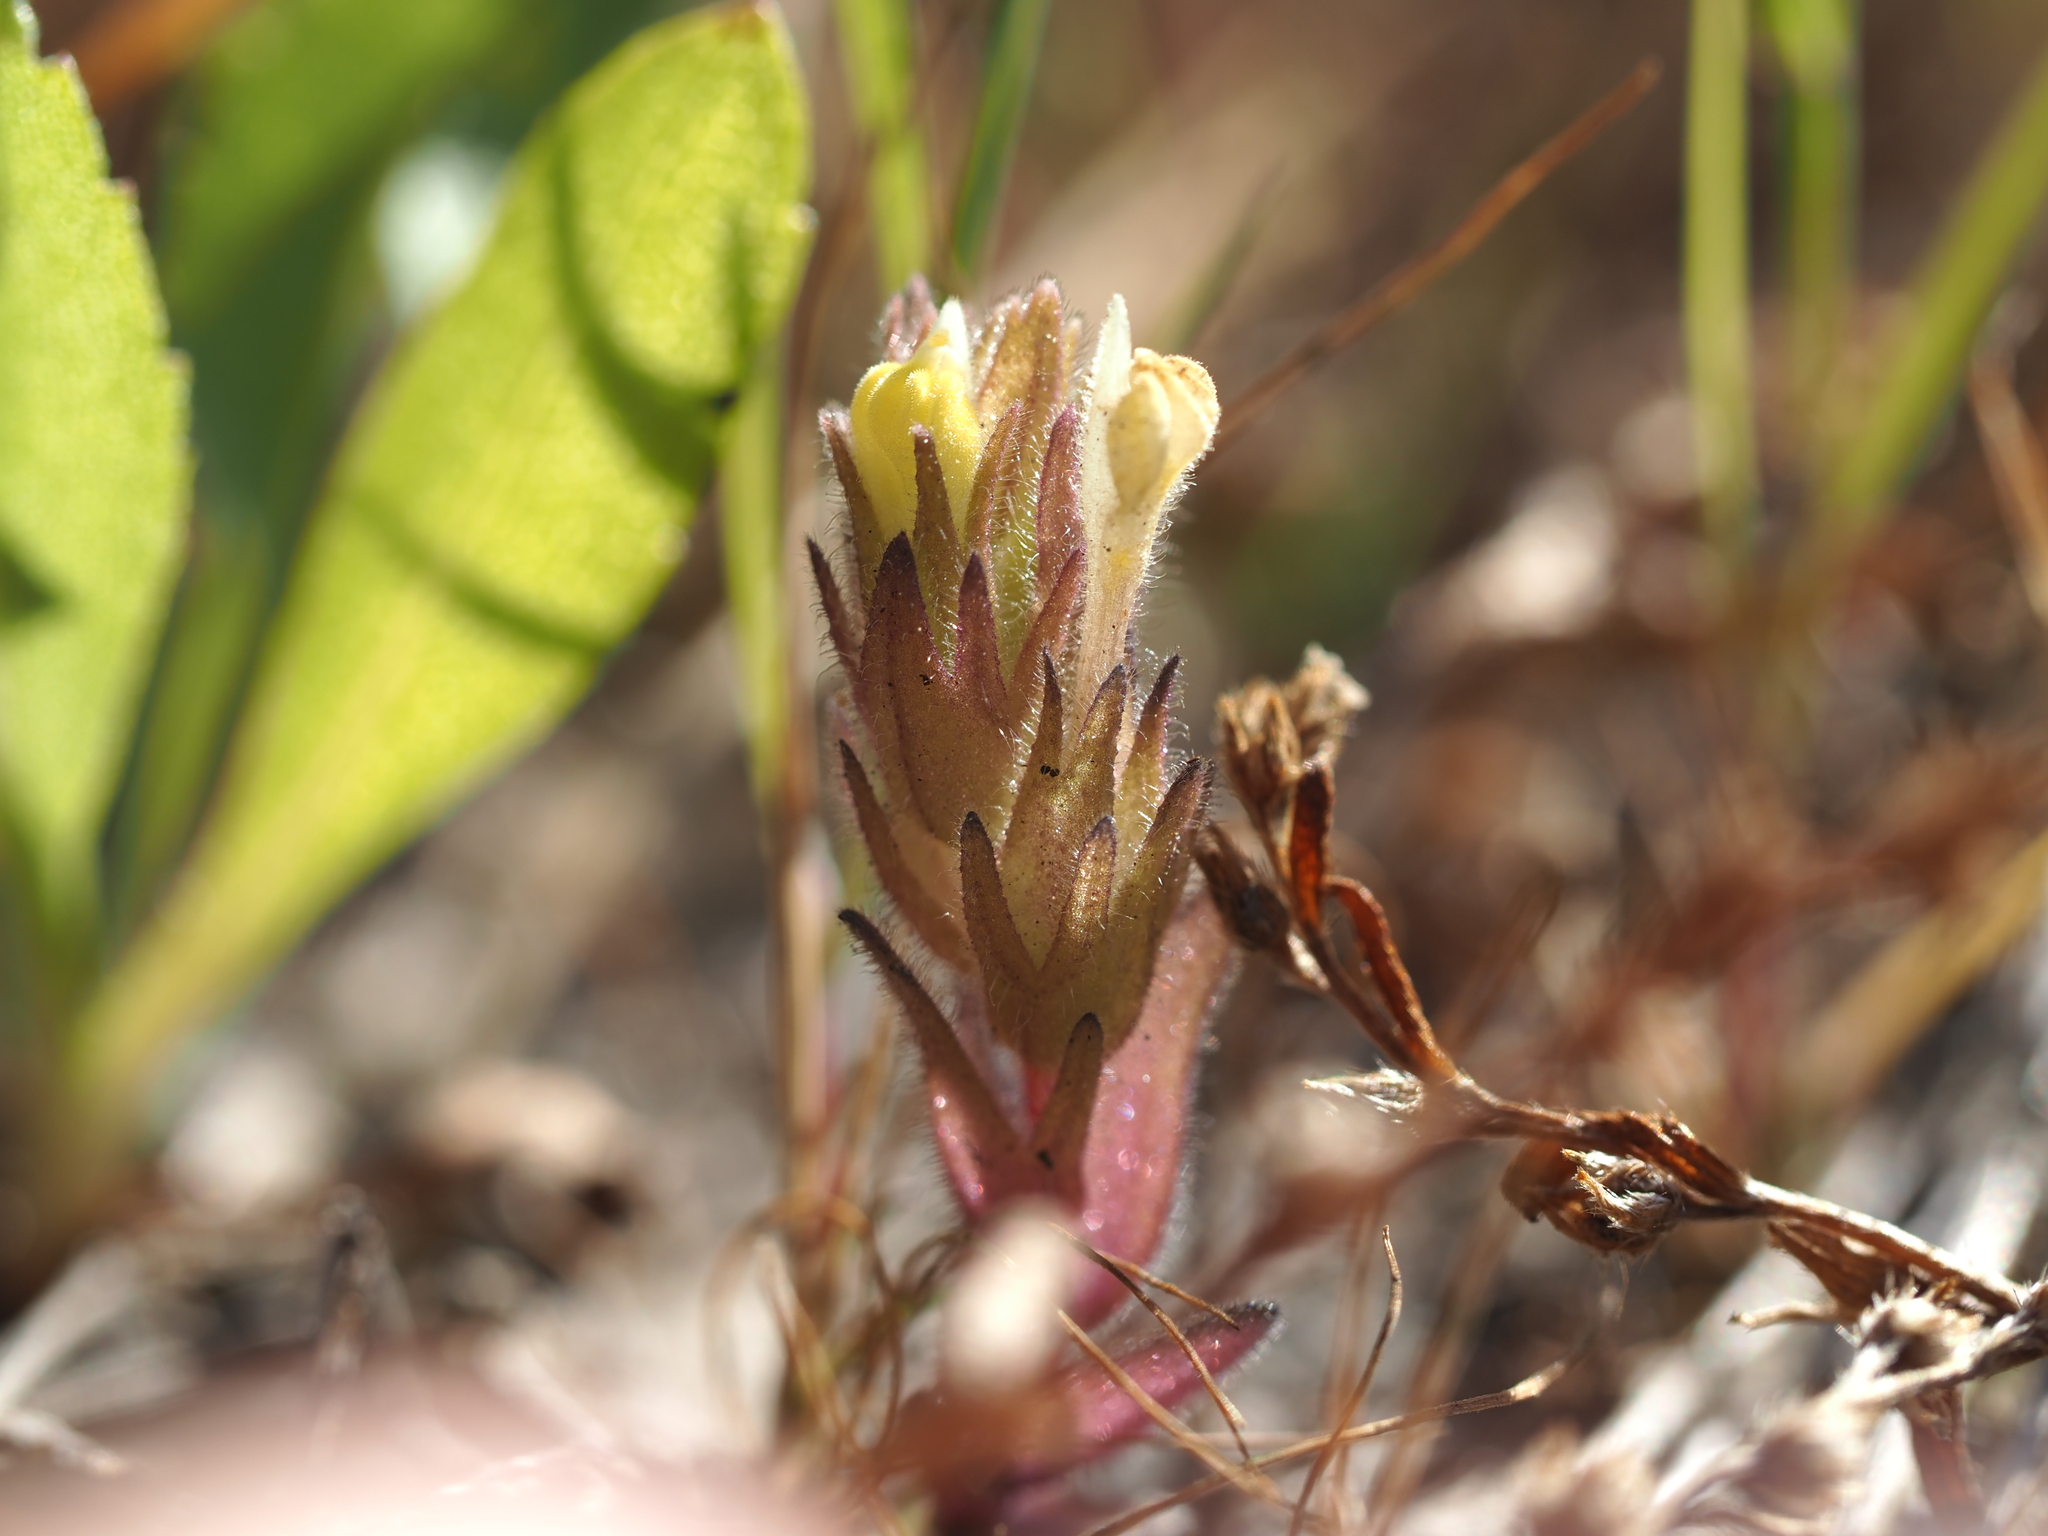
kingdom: Plantae
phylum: Tracheophyta
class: Magnoliopsida
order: Lamiales
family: Orobanchaceae
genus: Castilleja
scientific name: Castilleja victoriae
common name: Victoria paintbrush
